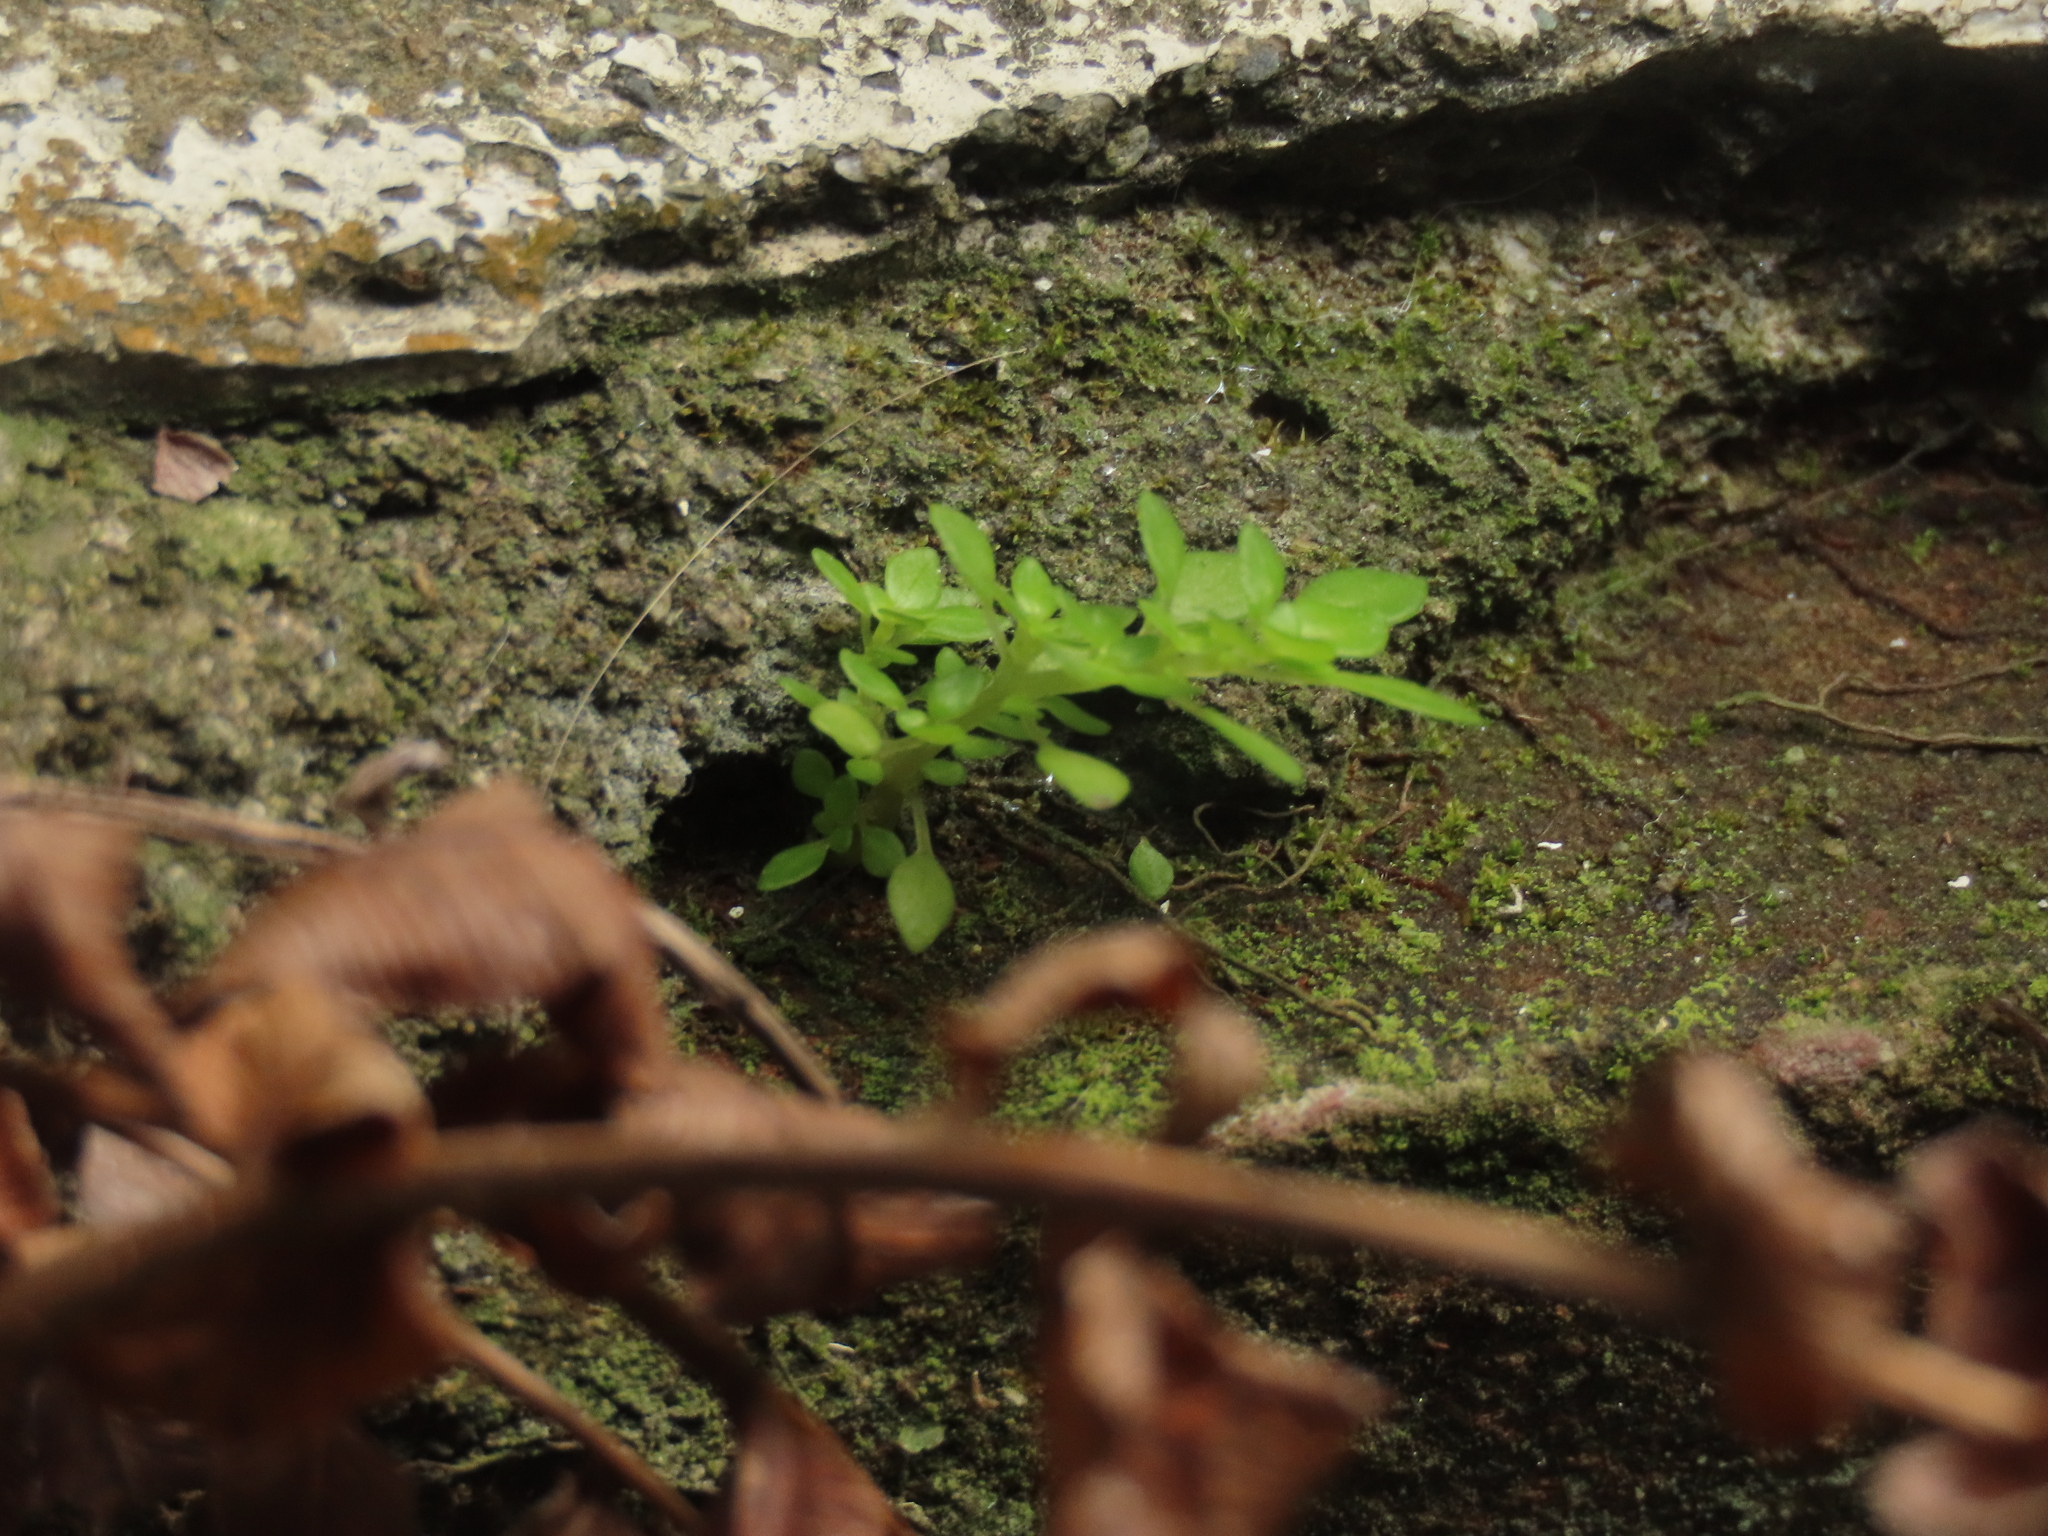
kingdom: Plantae
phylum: Tracheophyta
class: Magnoliopsida
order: Rosales
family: Urticaceae
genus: Pilea
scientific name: Pilea microphylla
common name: Artillery-plant
